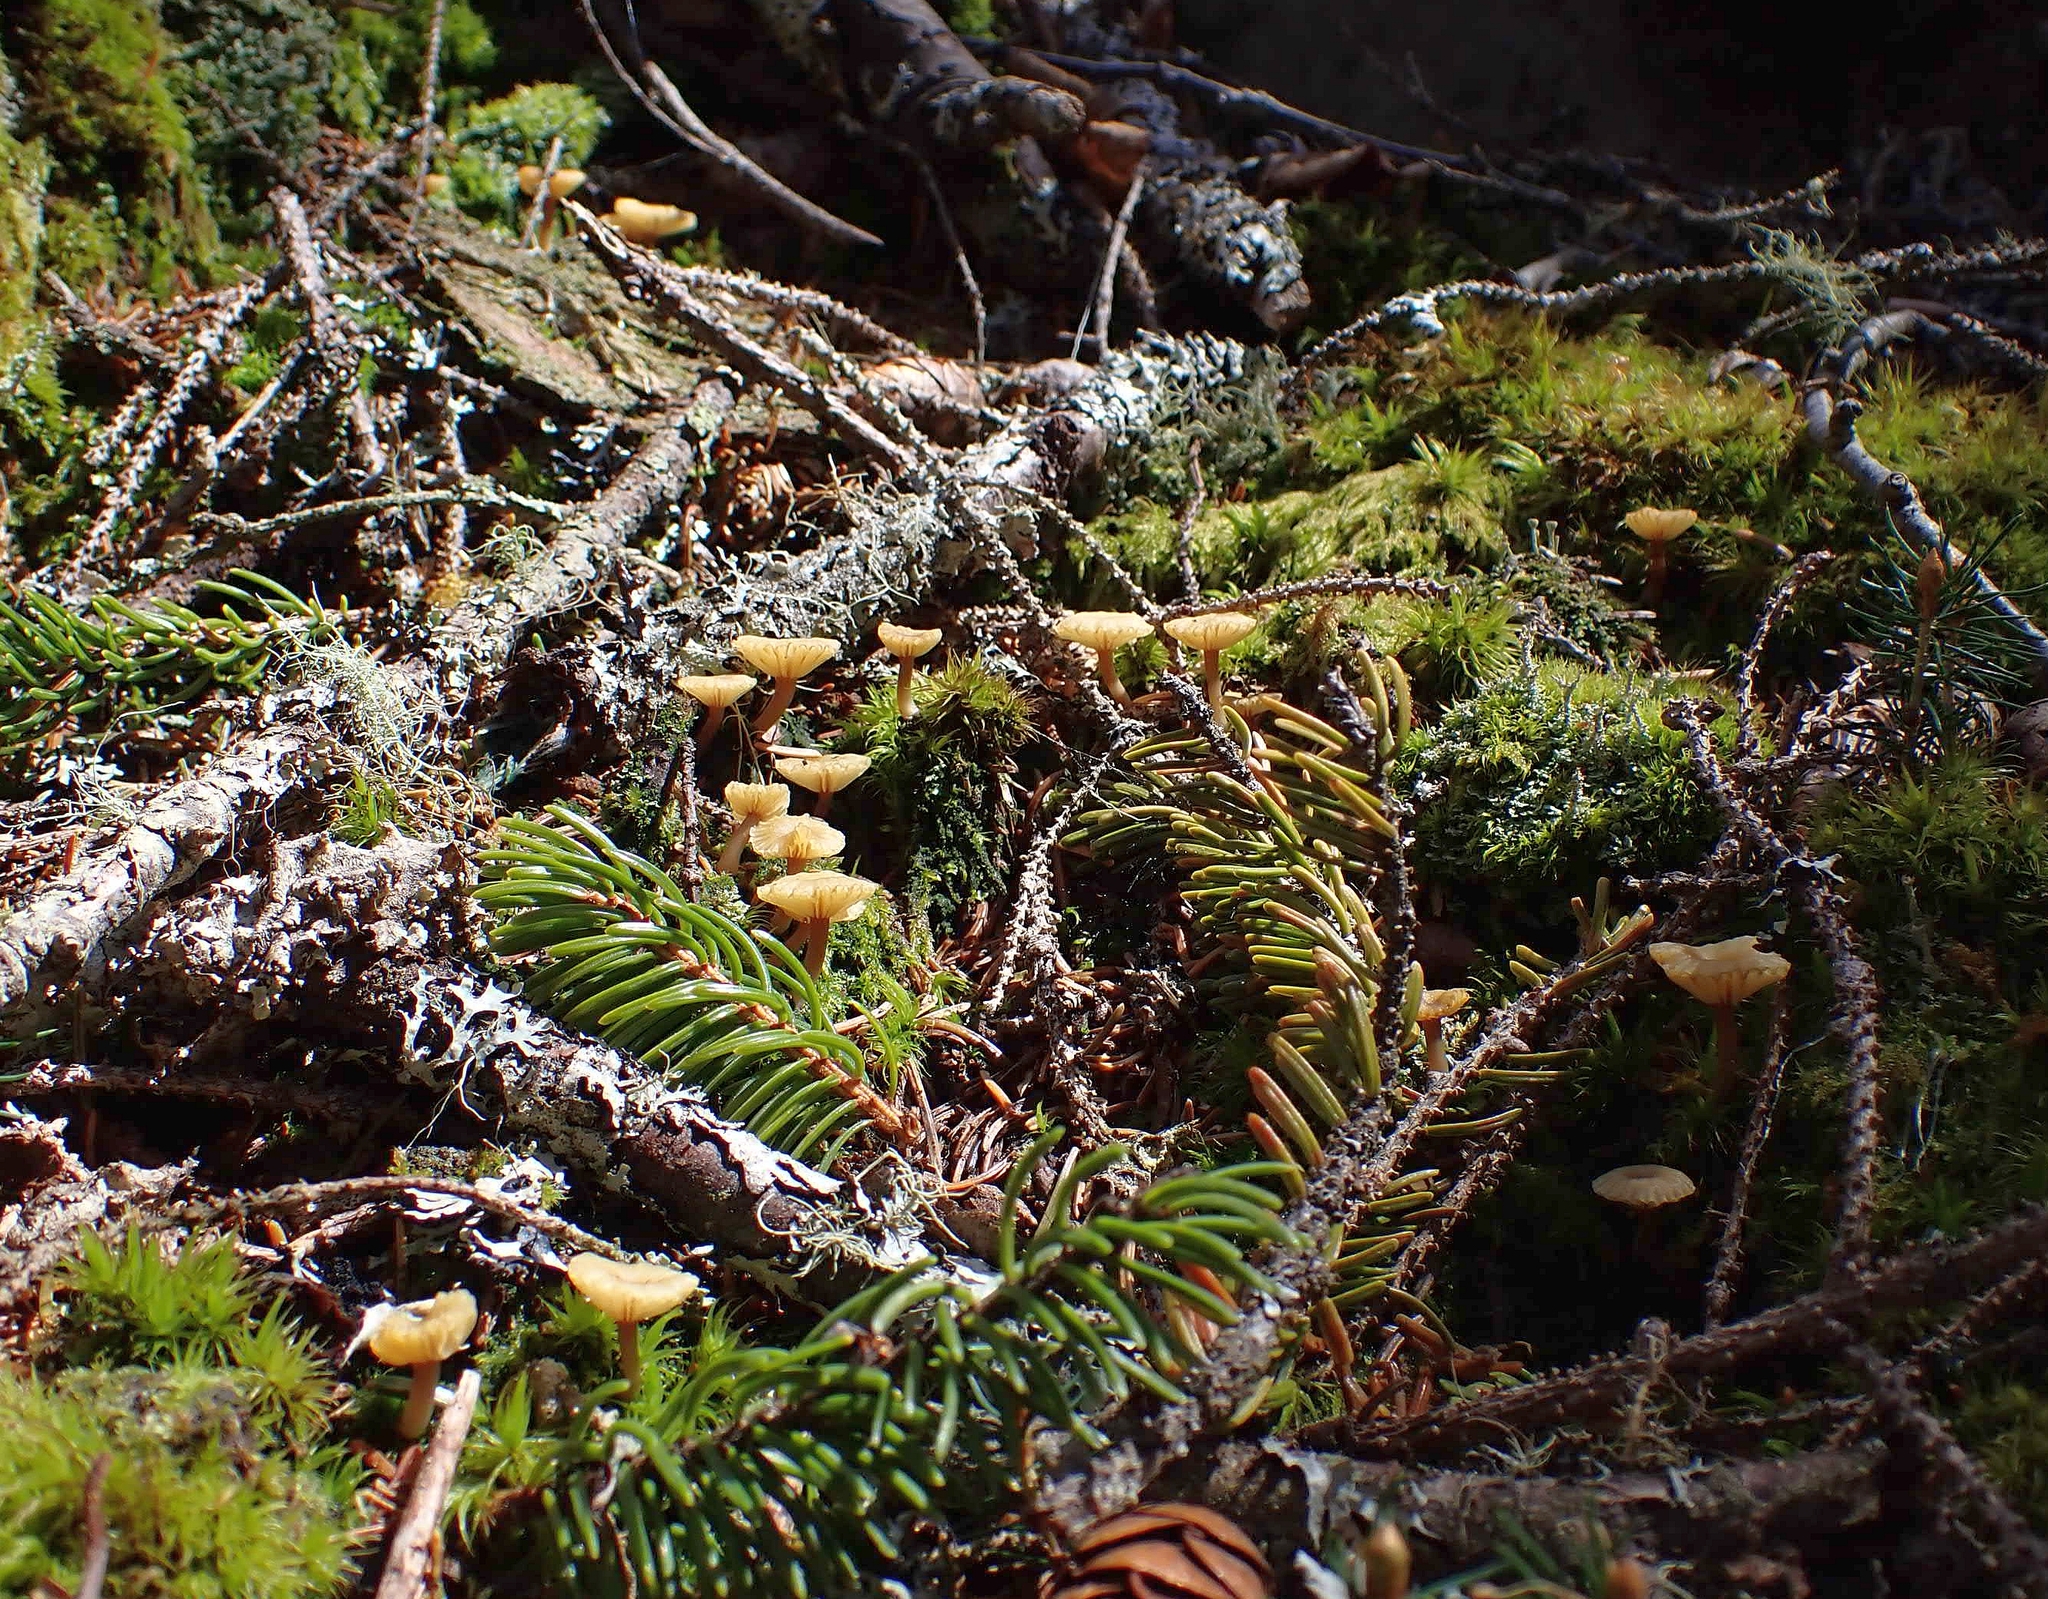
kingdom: Fungi
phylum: Basidiomycota
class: Agaricomycetes
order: Agaricales
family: Hygrophoraceae
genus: Lichenomphalia
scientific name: Lichenomphalia
